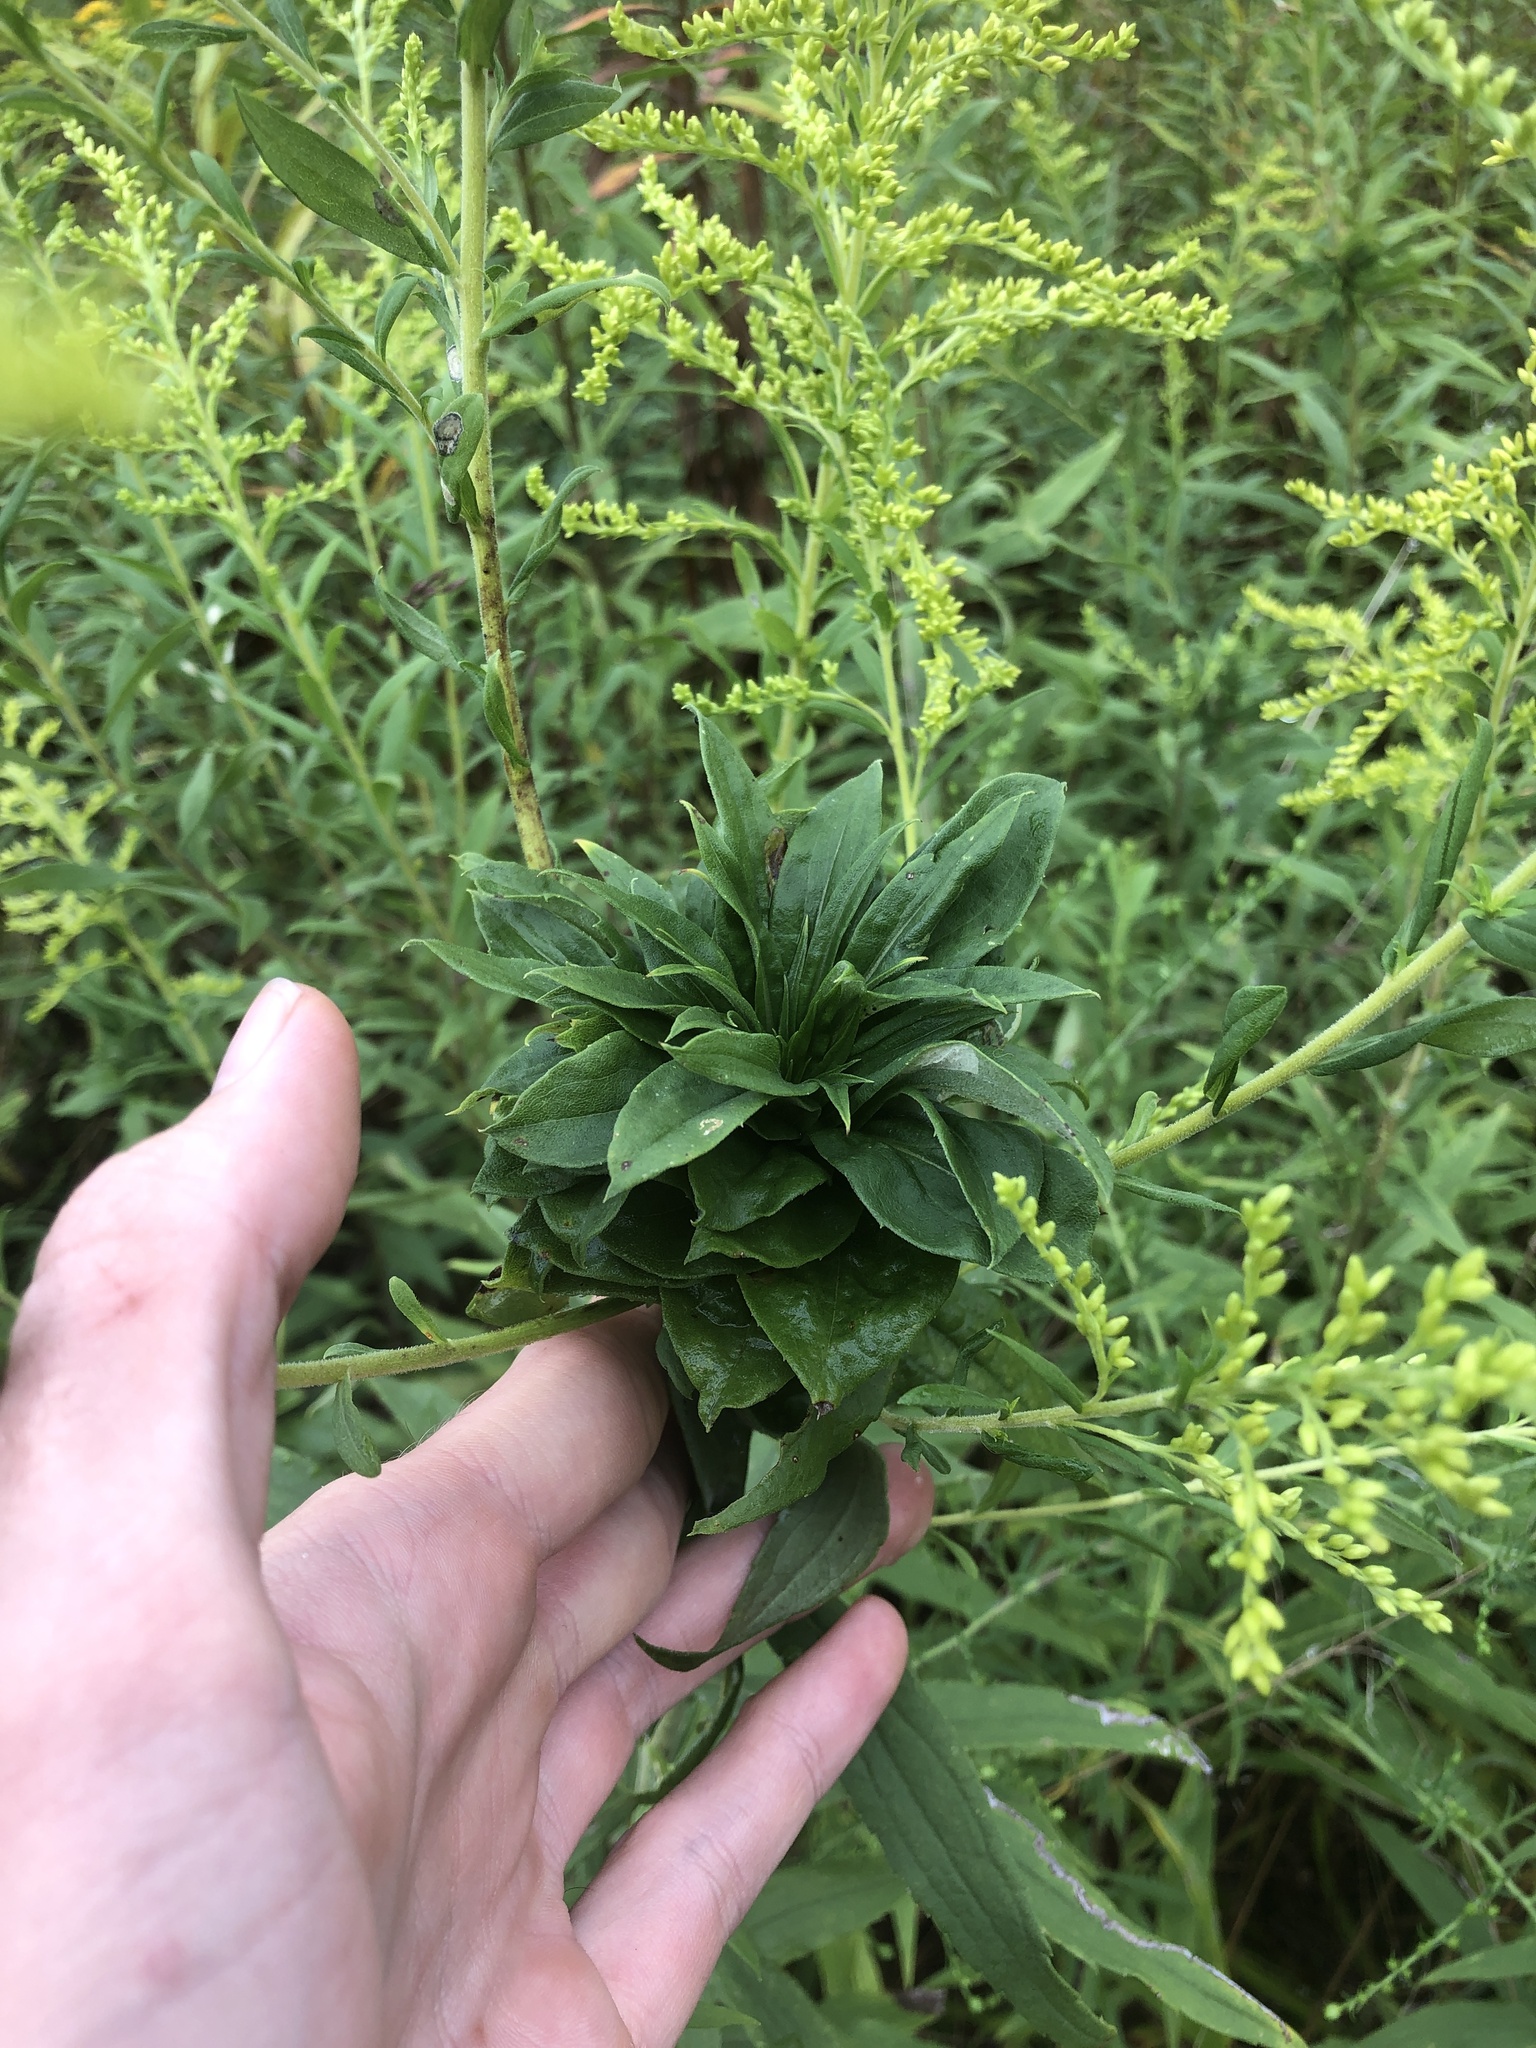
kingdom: Animalia
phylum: Arthropoda
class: Insecta
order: Diptera
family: Cecidomyiidae
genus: Rhopalomyia
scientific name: Rhopalomyia solidaginis
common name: Goldenrod bunch gall midge
